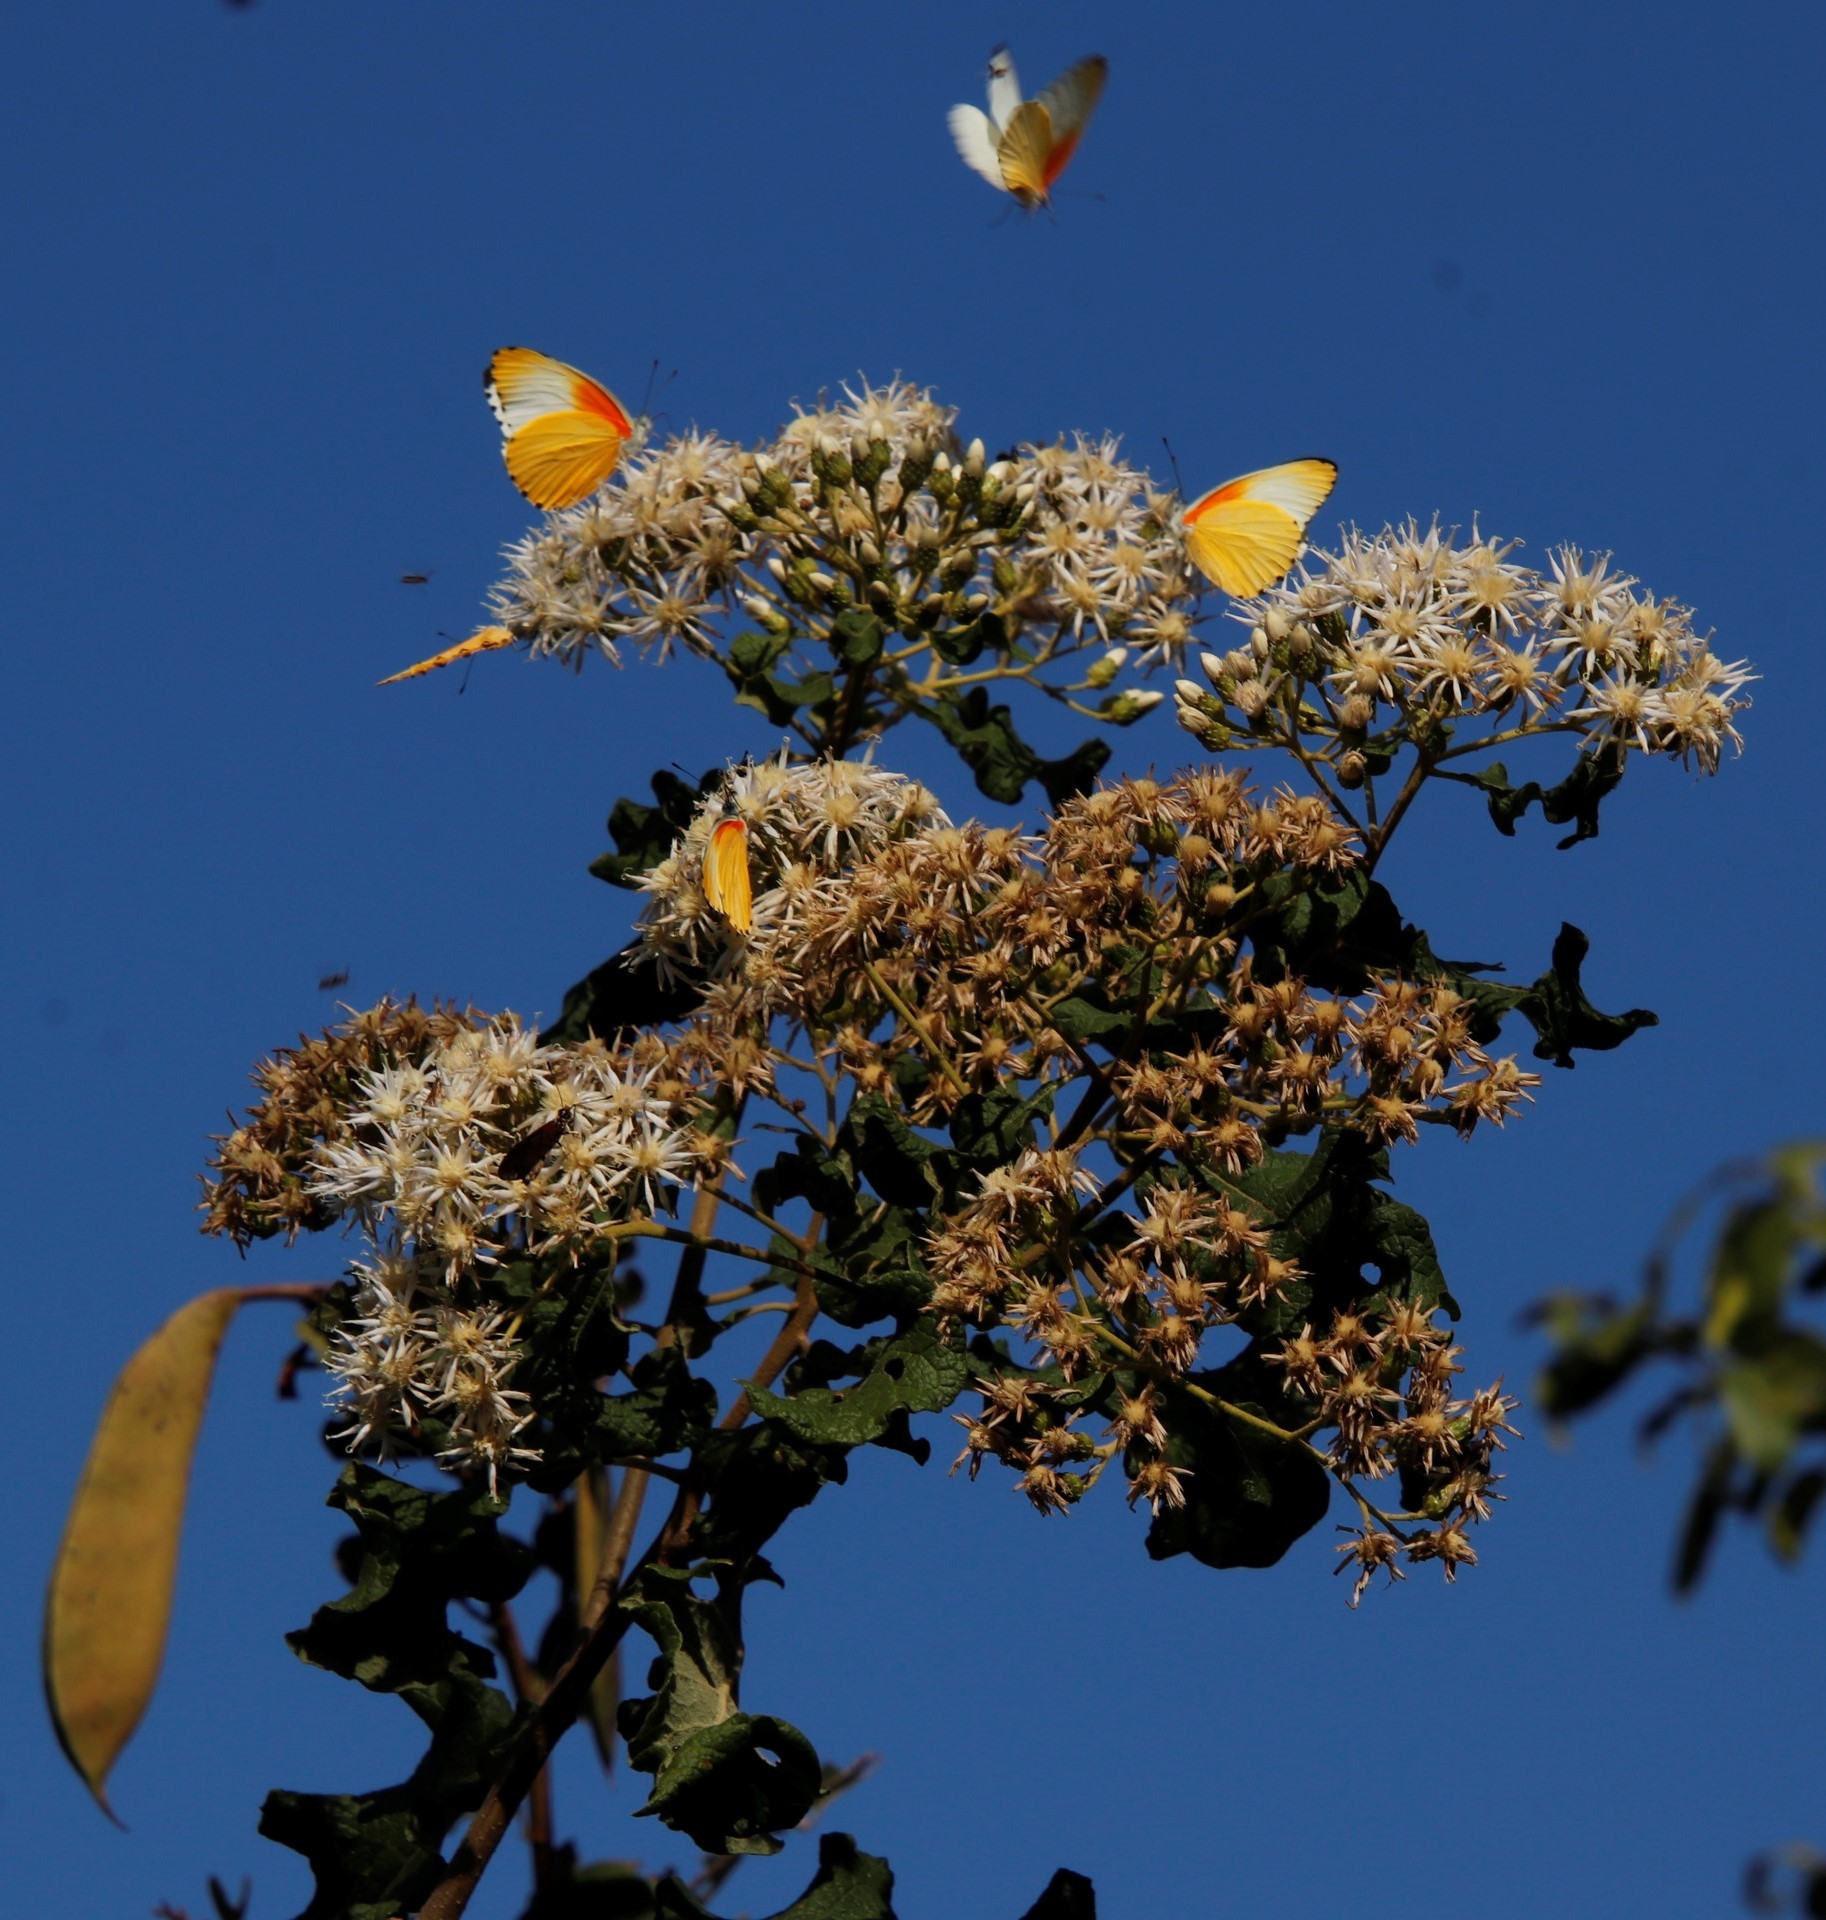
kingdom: Animalia
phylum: Arthropoda
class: Insecta
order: Lepidoptera
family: Pieridae
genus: Mylothris
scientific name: Mylothris agathina
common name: Eastern dotted border
